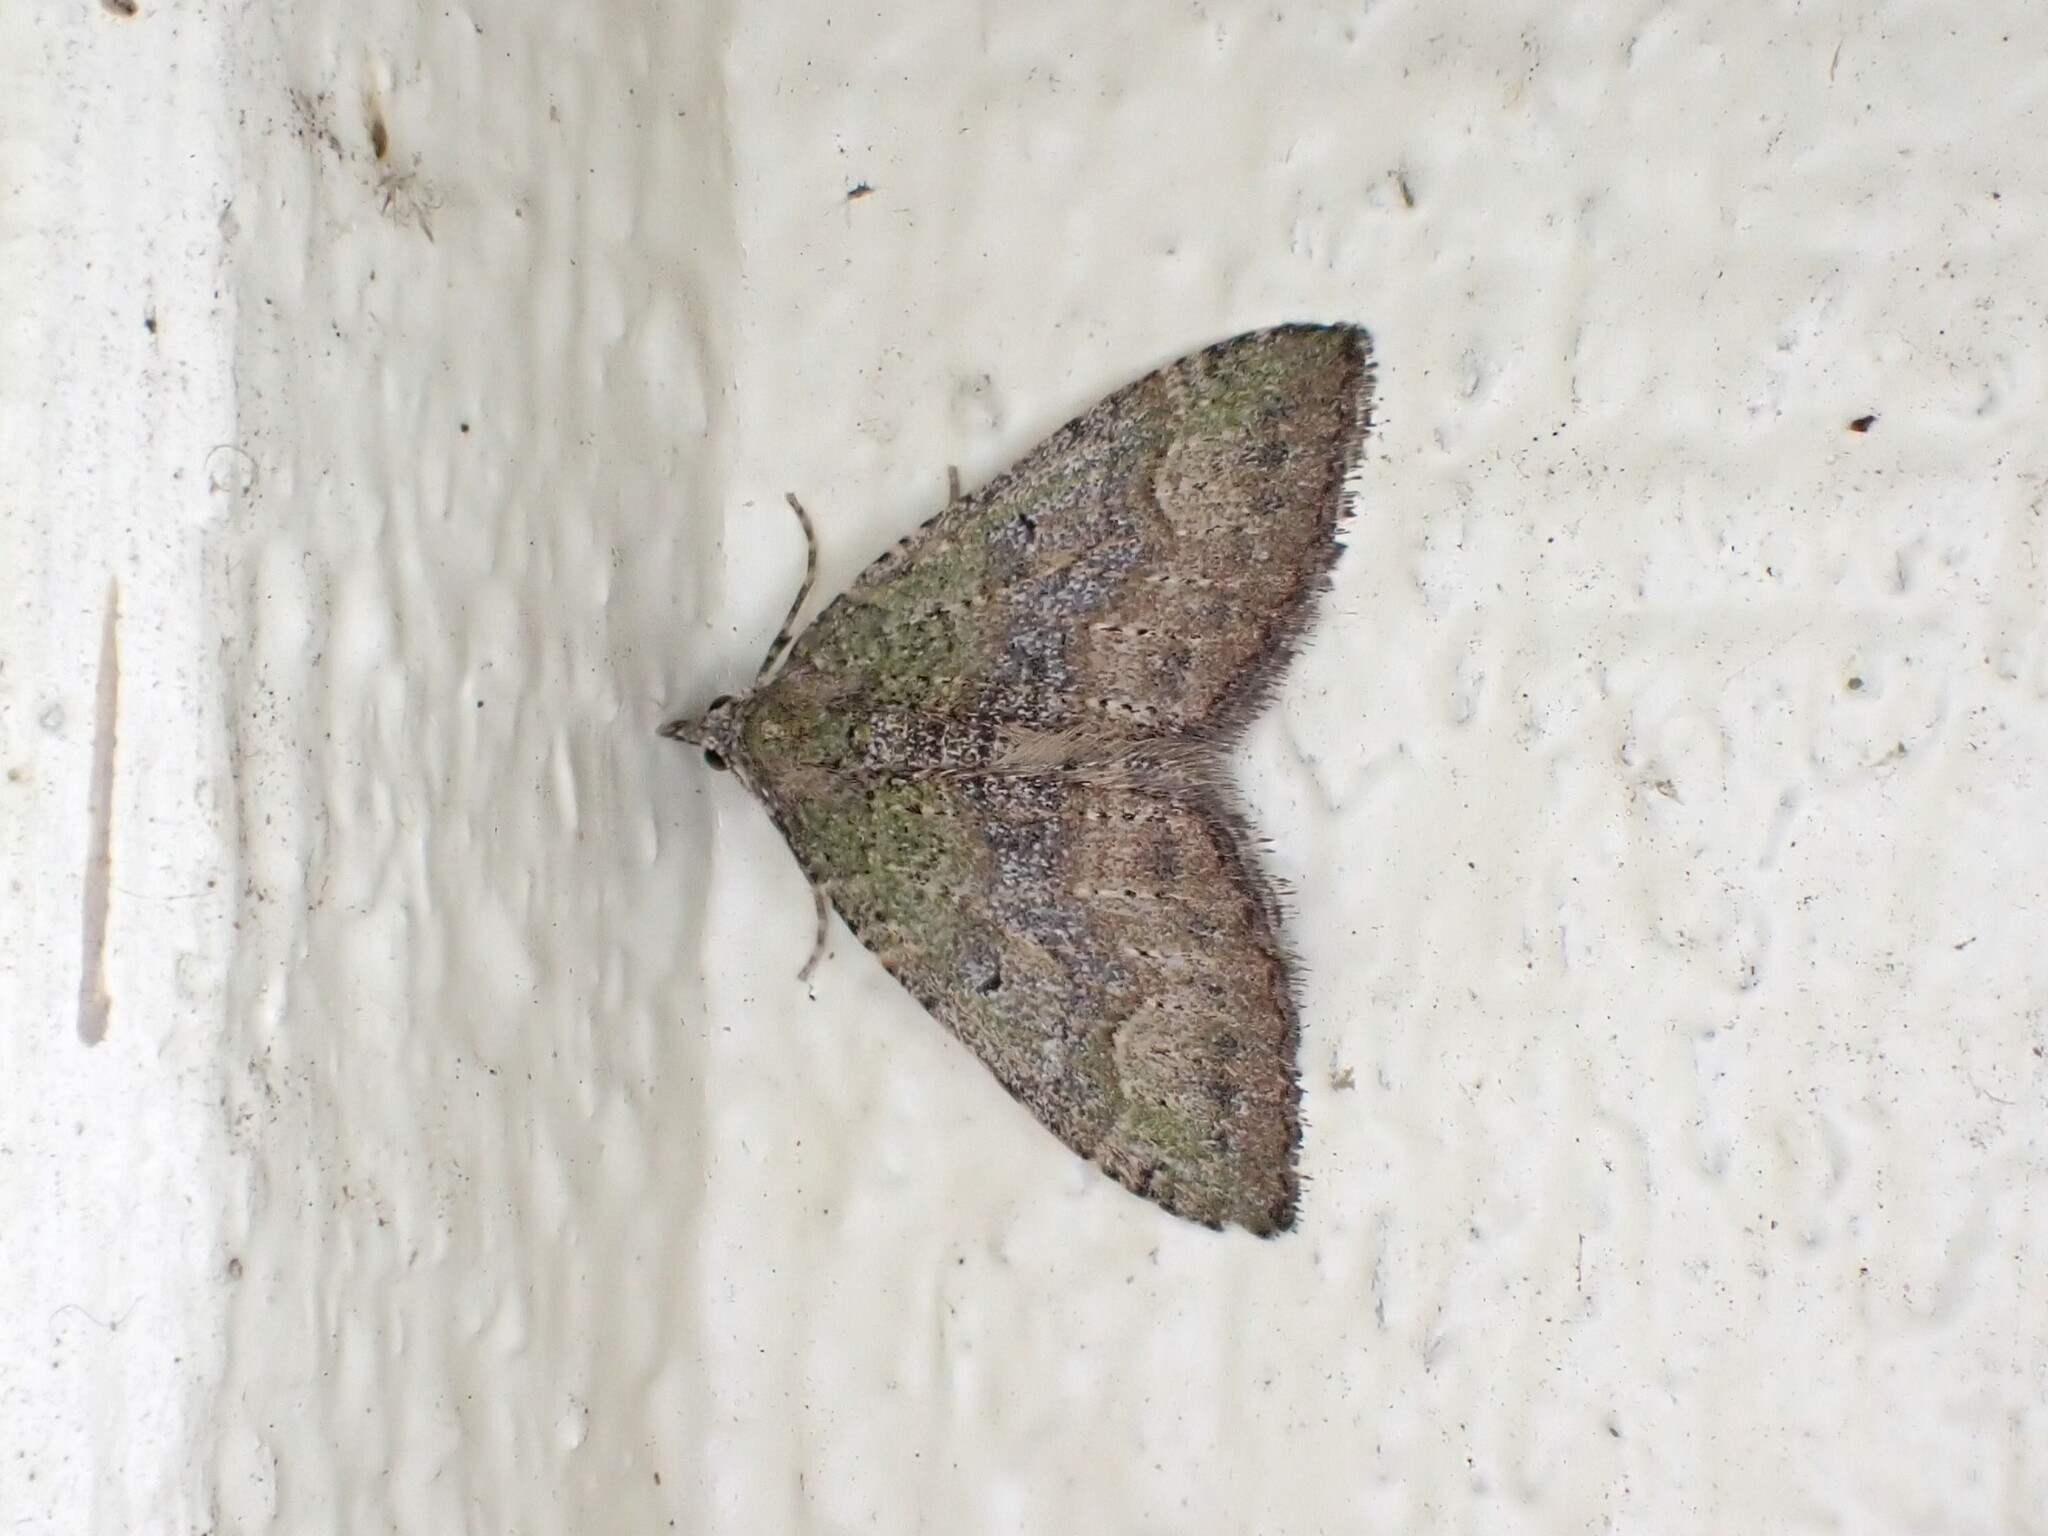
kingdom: Animalia
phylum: Arthropoda
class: Insecta
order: Lepidoptera
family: Geometridae
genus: Epyaxa
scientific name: Epyaxa rosearia
